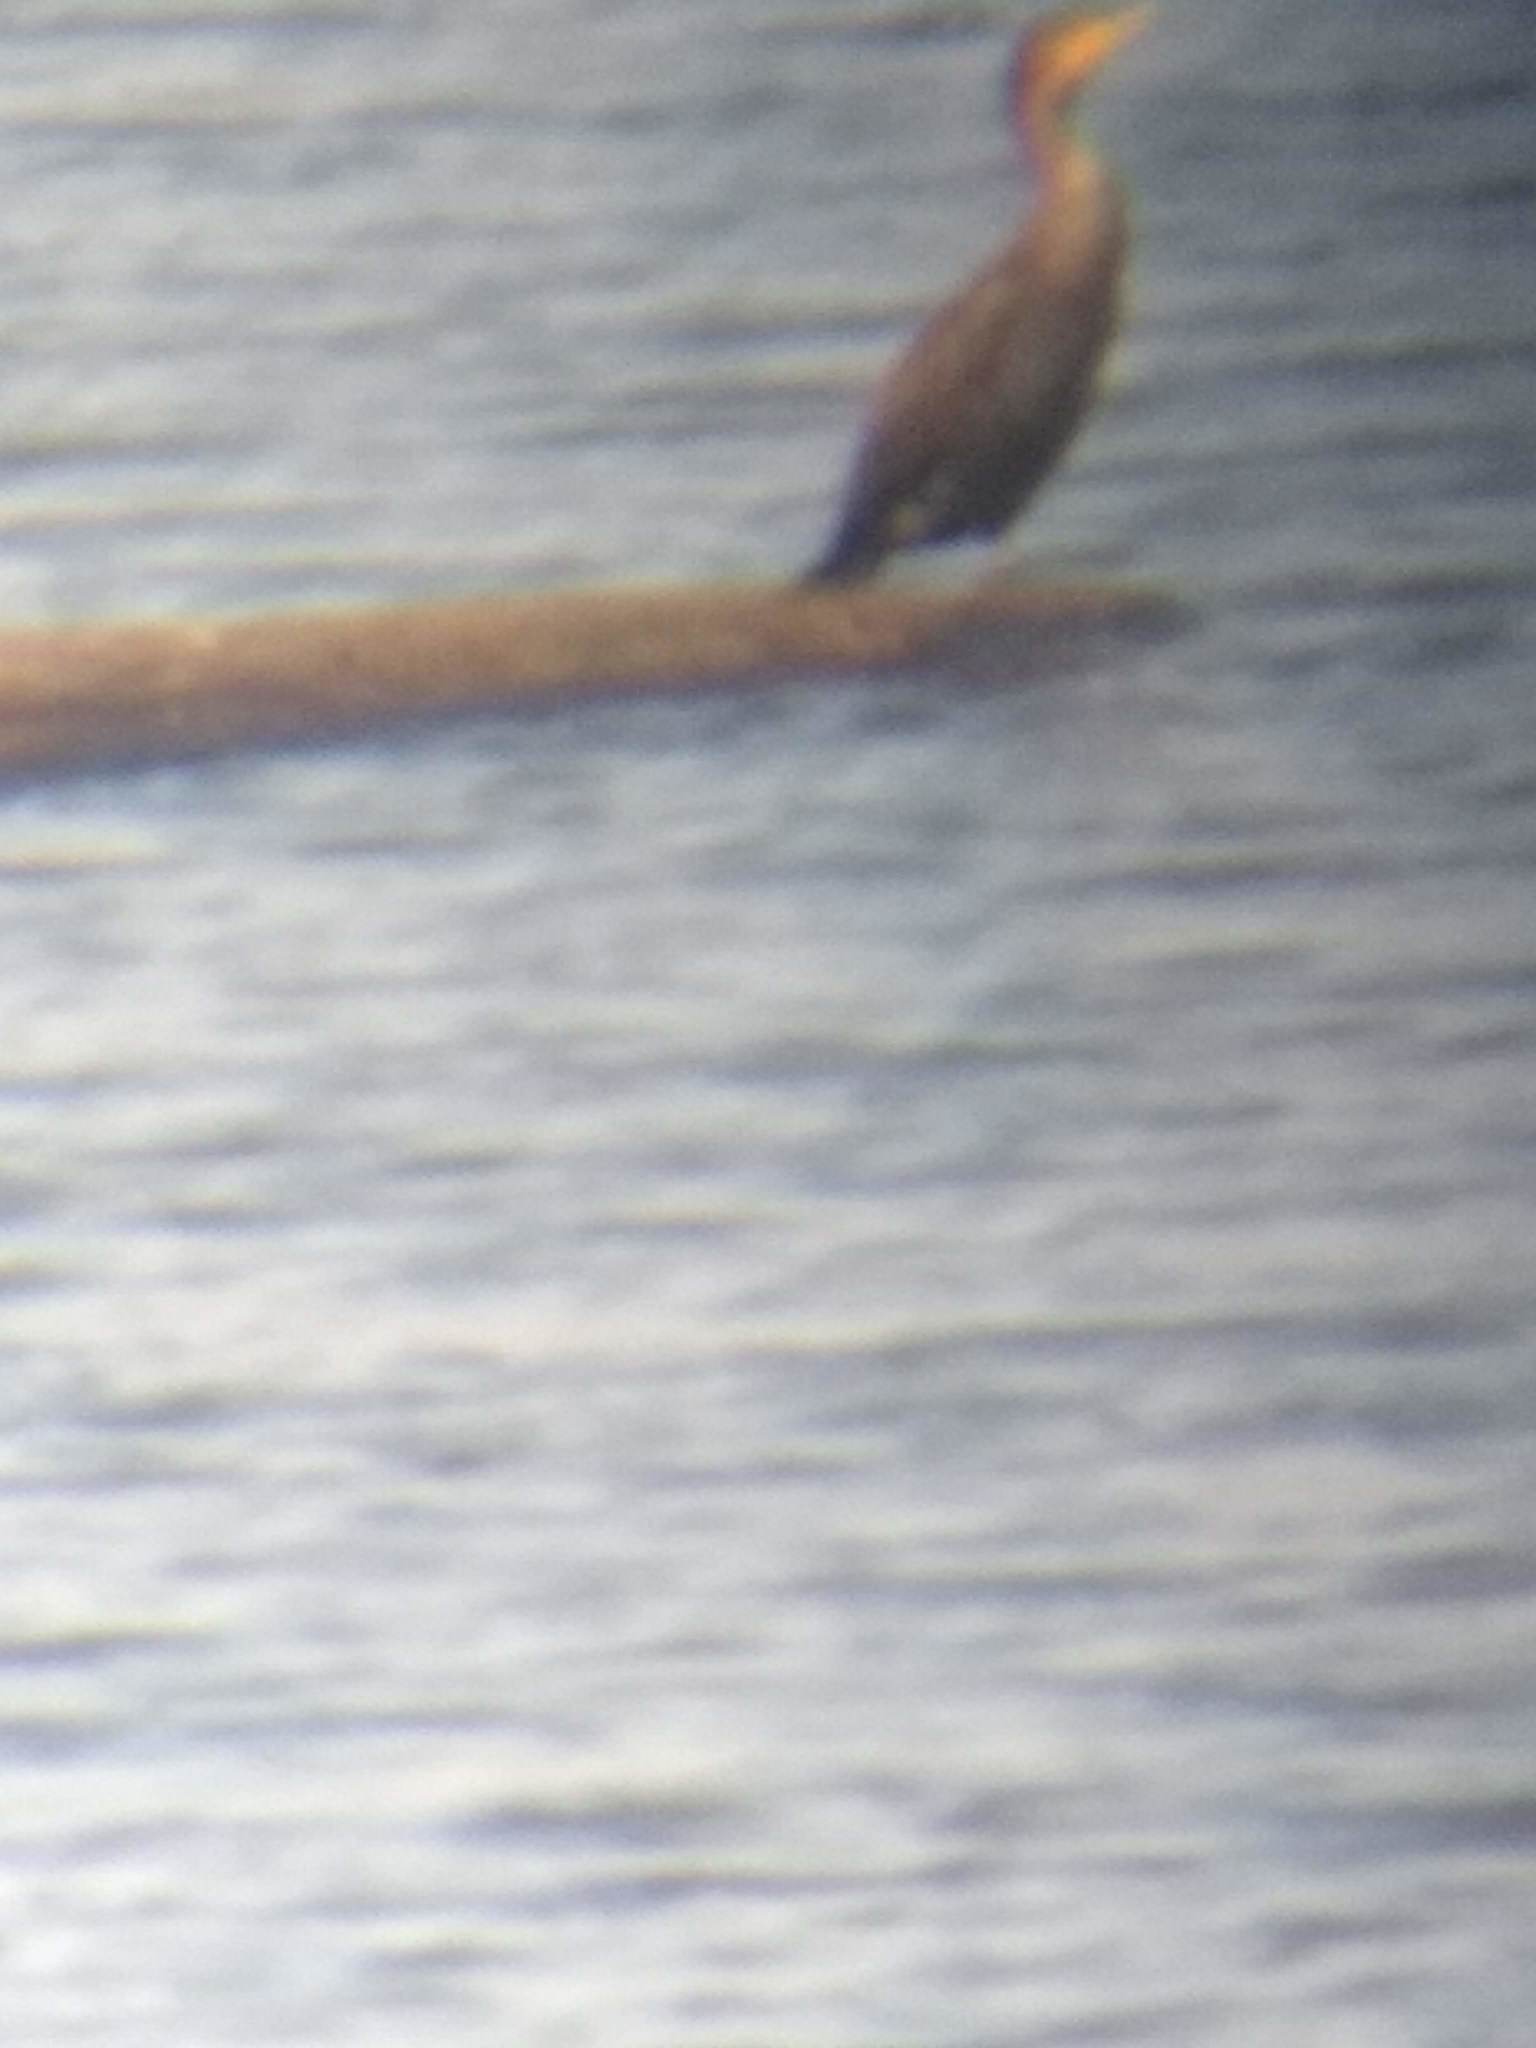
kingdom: Animalia
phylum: Chordata
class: Aves
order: Suliformes
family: Phalacrocoracidae
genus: Phalacrocorax
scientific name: Phalacrocorax auritus
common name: Double-crested cormorant
